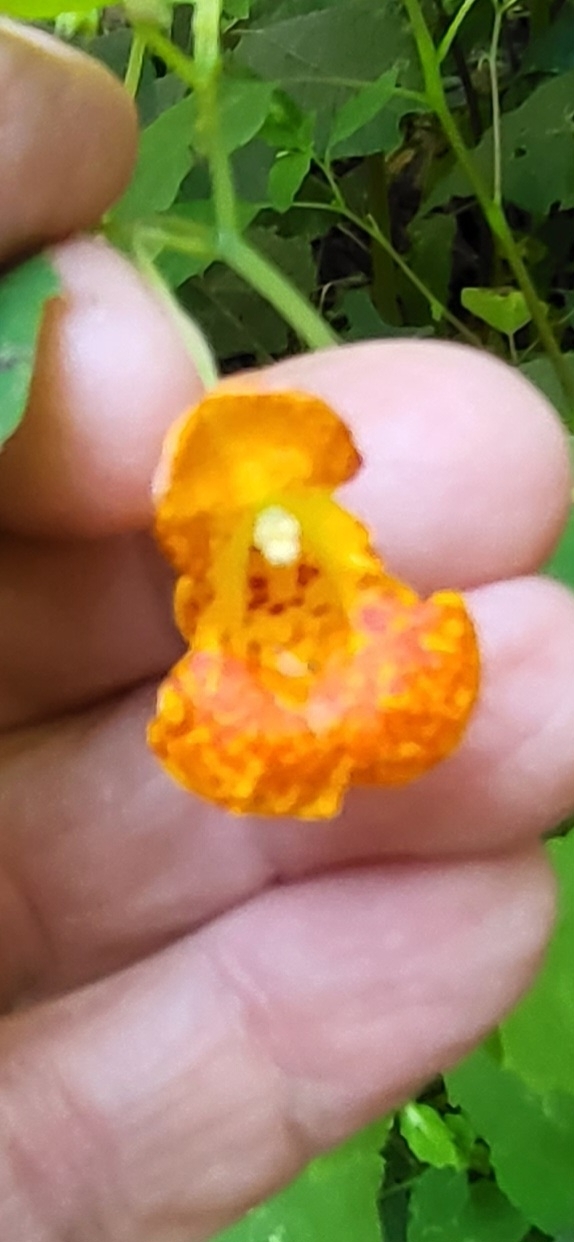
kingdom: Plantae
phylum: Tracheophyta
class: Magnoliopsida
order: Ericales
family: Balsaminaceae
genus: Impatiens
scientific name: Impatiens capensis
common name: Orange balsam
